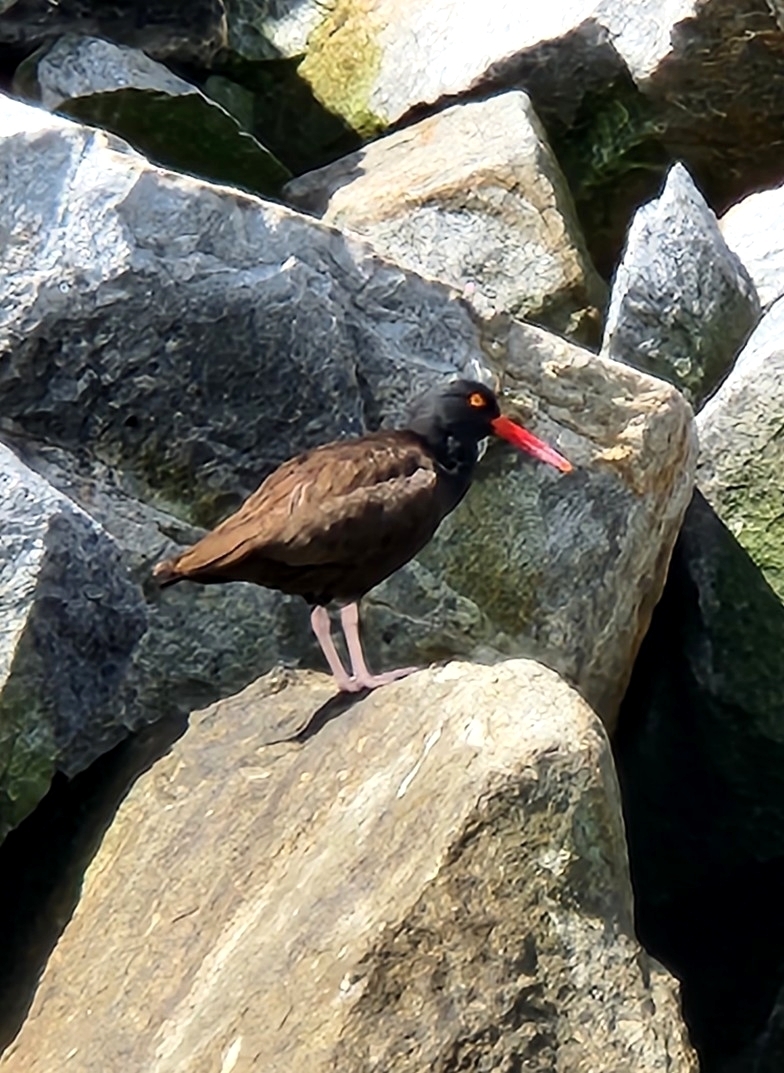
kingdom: Animalia
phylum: Chordata
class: Aves
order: Charadriiformes
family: Haematopodidae
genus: Haematopus
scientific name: Haematopus bachmani
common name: Black oystercatcher
